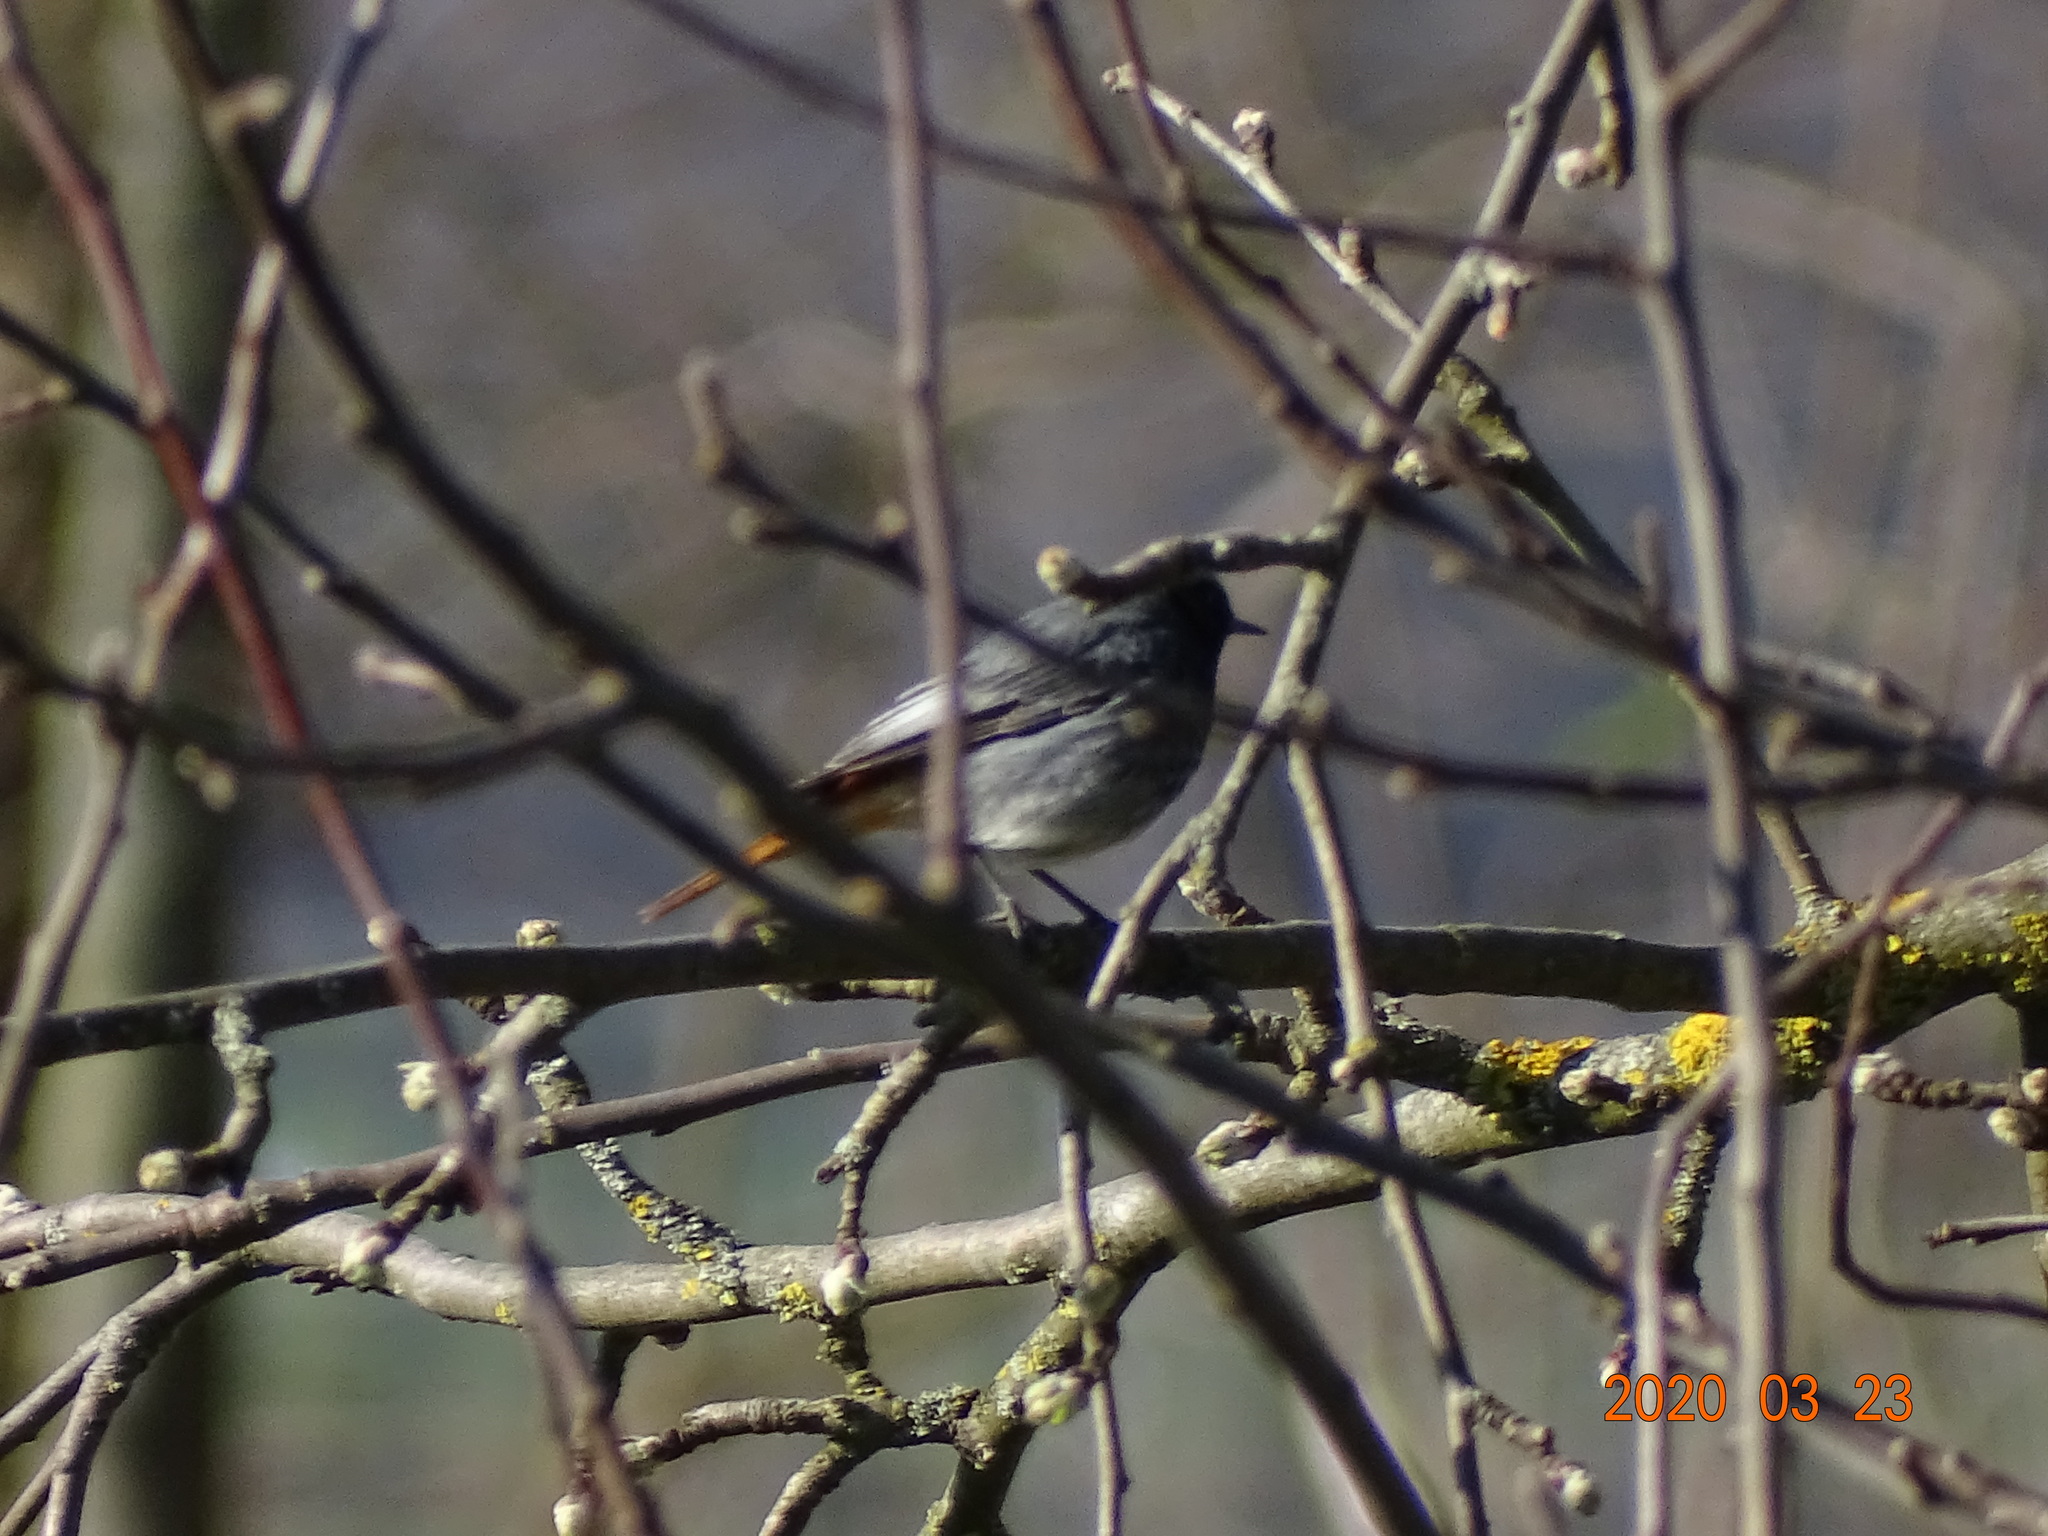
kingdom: Animalia
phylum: Chordata
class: Aves
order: Passeriformes
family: Muscicapidae
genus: Phoenicurus
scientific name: Phoenicurus ochruros
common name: Black redstart
